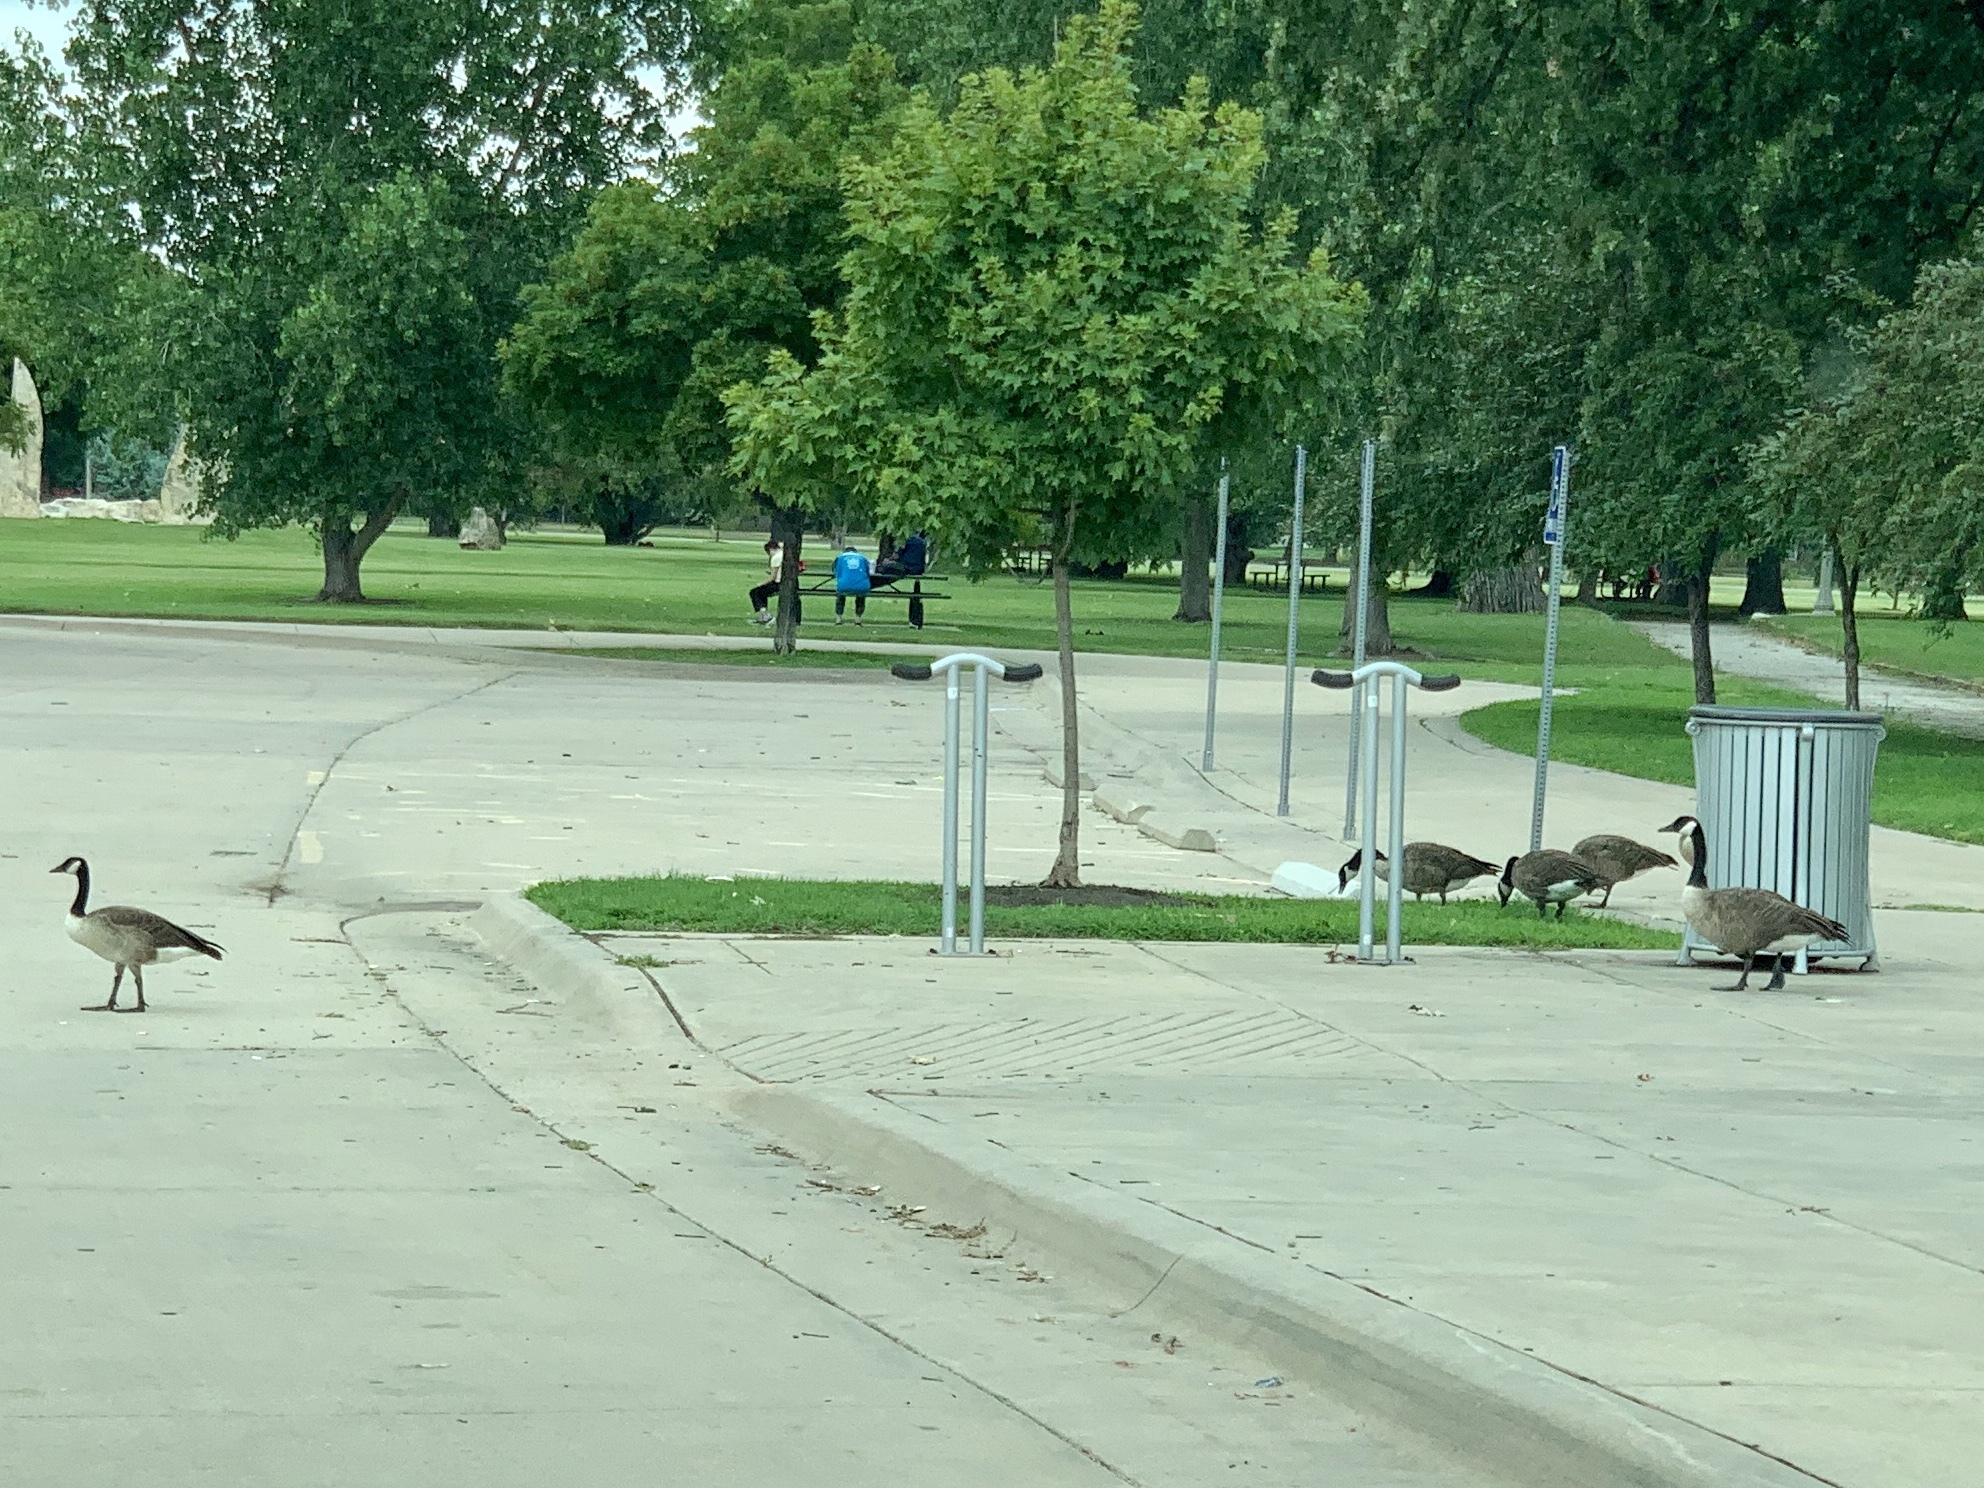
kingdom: Animalia
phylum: Chordata
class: Aves
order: Anseriformes
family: Anatidae
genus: Branta
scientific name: Branta canadensis
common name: Canada goose
